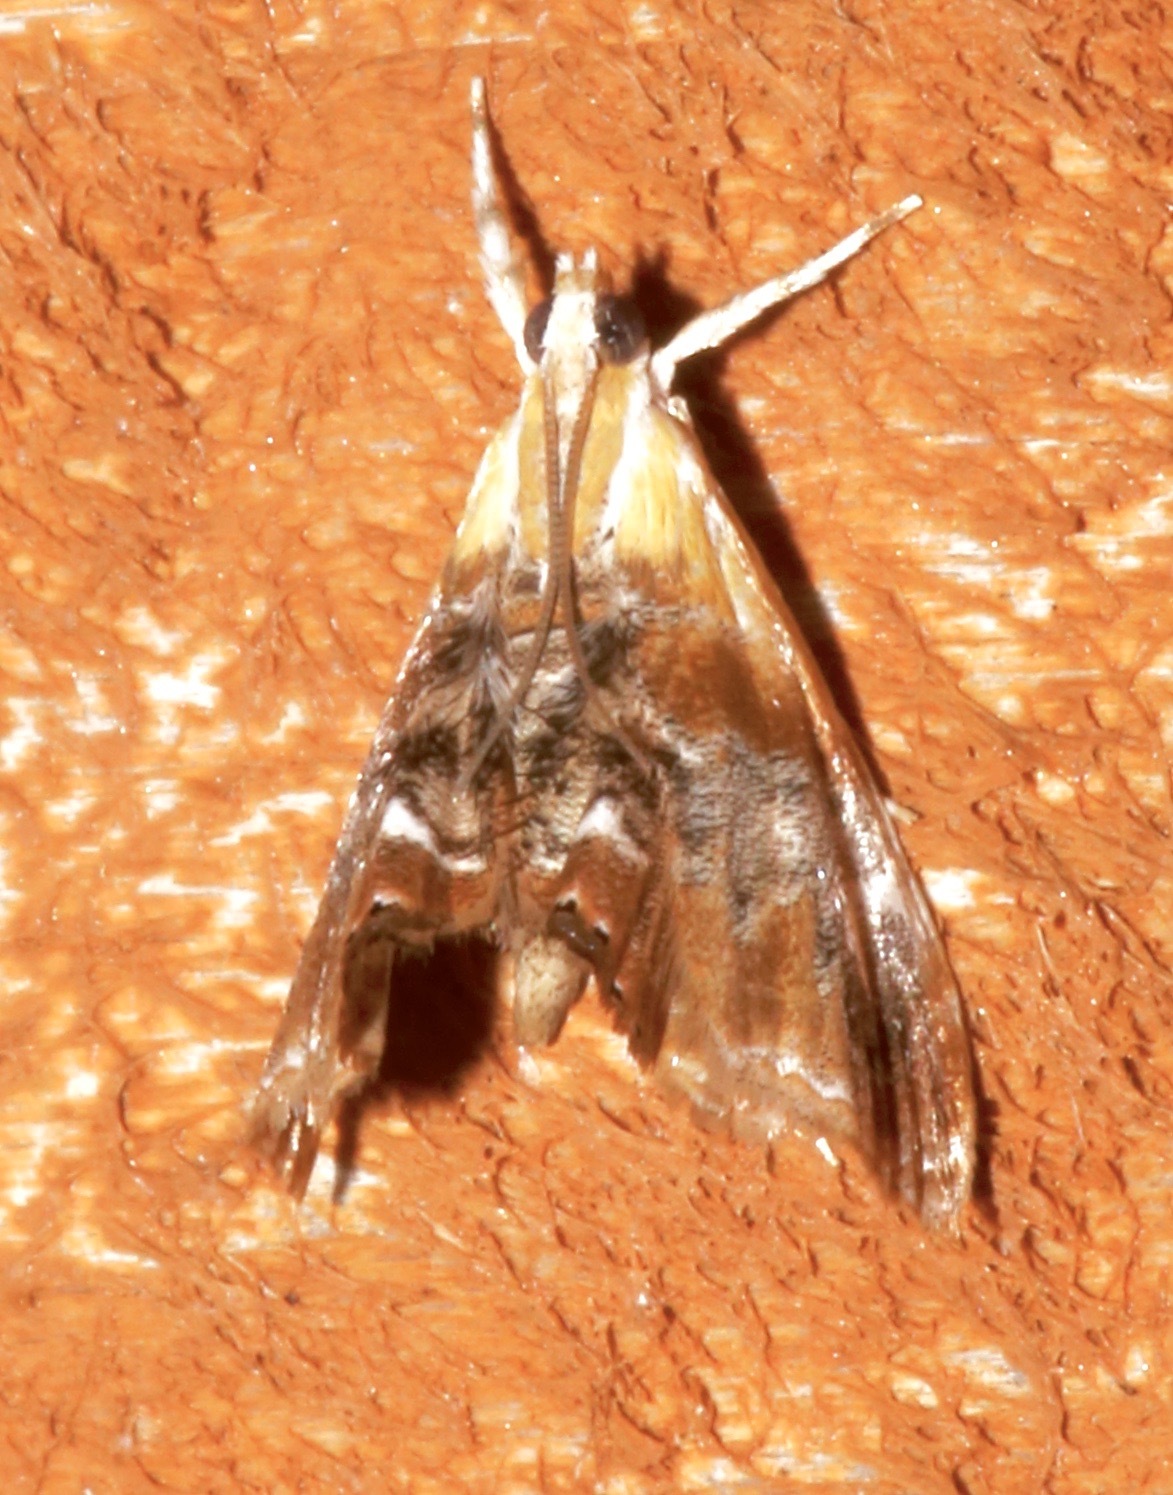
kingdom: Animalia
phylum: Arthropoda
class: Insecta
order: Lepidoptera
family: Crambidae
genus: Dicymolomia
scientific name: Dicymolomia julianalis
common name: Julia's dicymolomia moth
